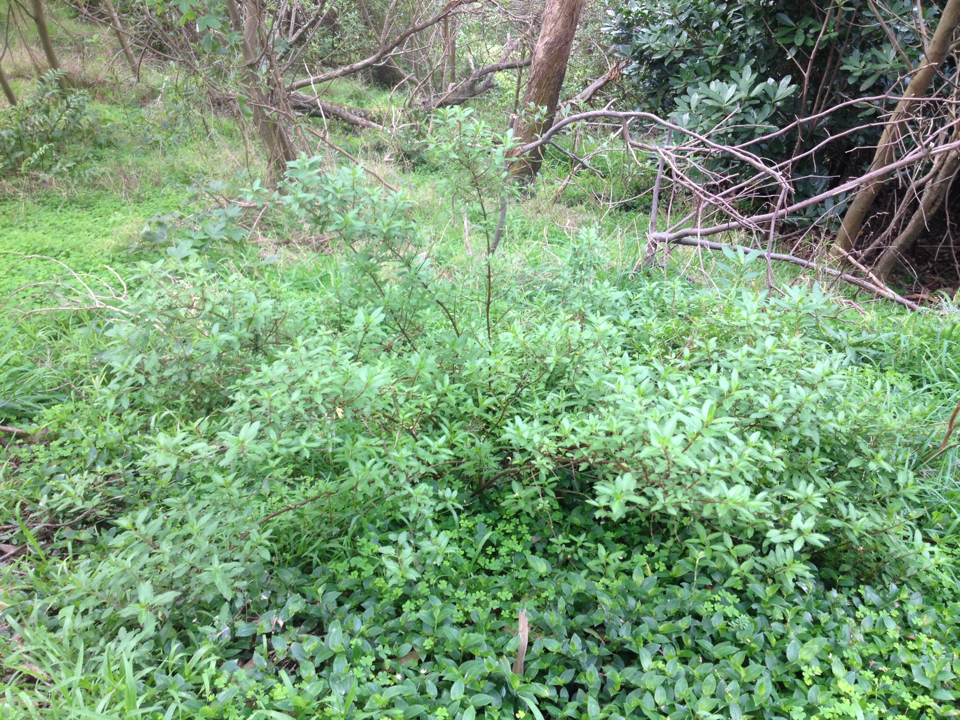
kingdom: Plantae
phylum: Tracheophyta
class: Magnoliopsida
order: Saxifragales
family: Haloragaceae
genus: Haloragis
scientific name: Haloragis erecta
